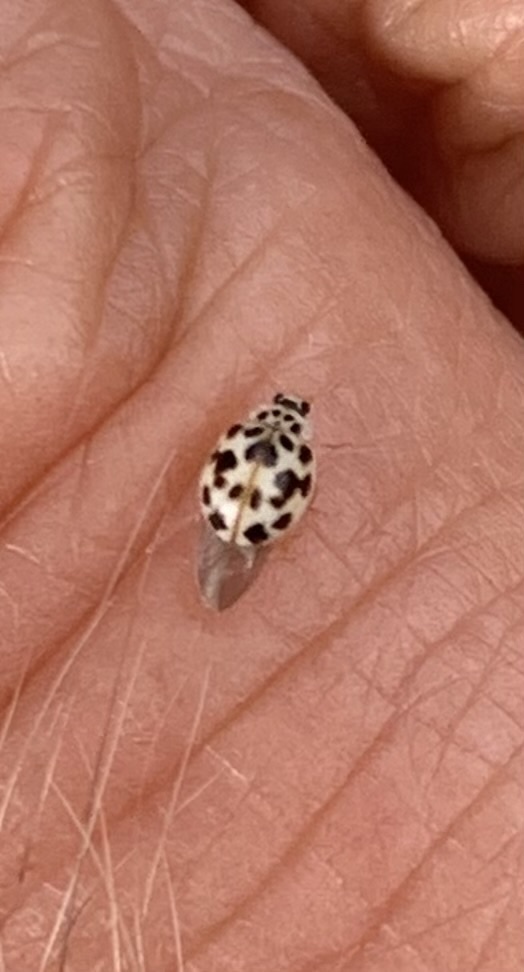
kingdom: Animalia
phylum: Arthropoda
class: Insecta
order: Coleoptera
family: Coccinellidae
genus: Psyllobora
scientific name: Psyllobora vigintimaculata
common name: Ladybird beetle
